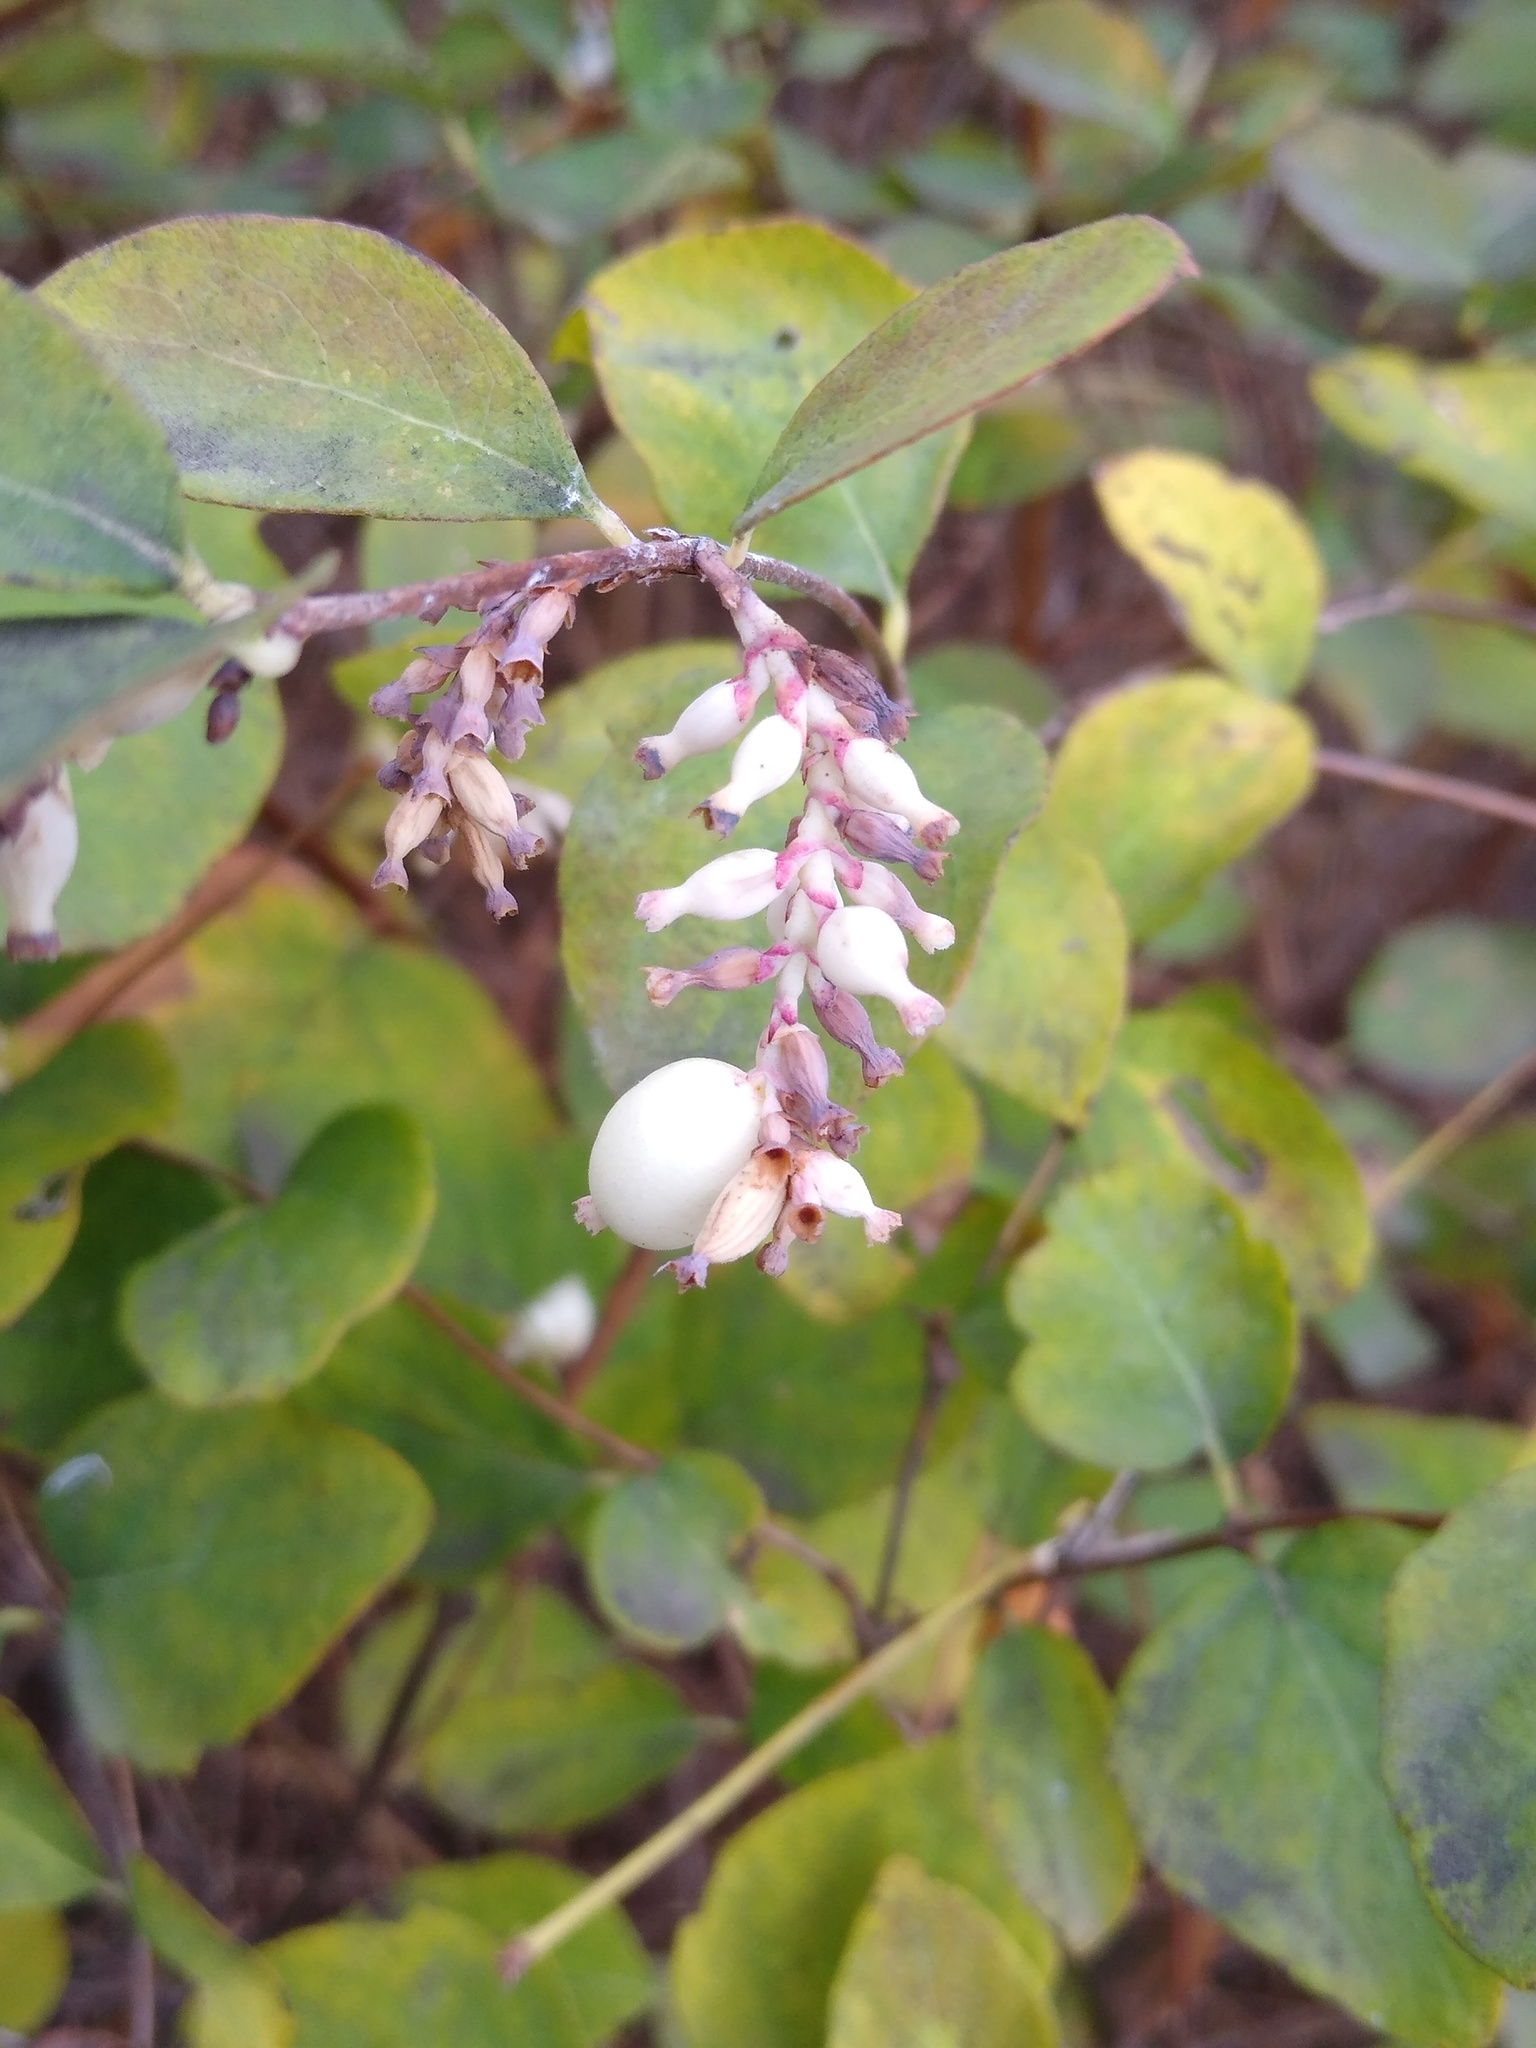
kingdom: Plantae
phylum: Tracheophyta
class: Magnoliopsida
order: Dipsacales
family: Caprifoliaceae
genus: Symphoricarpos
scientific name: Symphoricarpos albus
